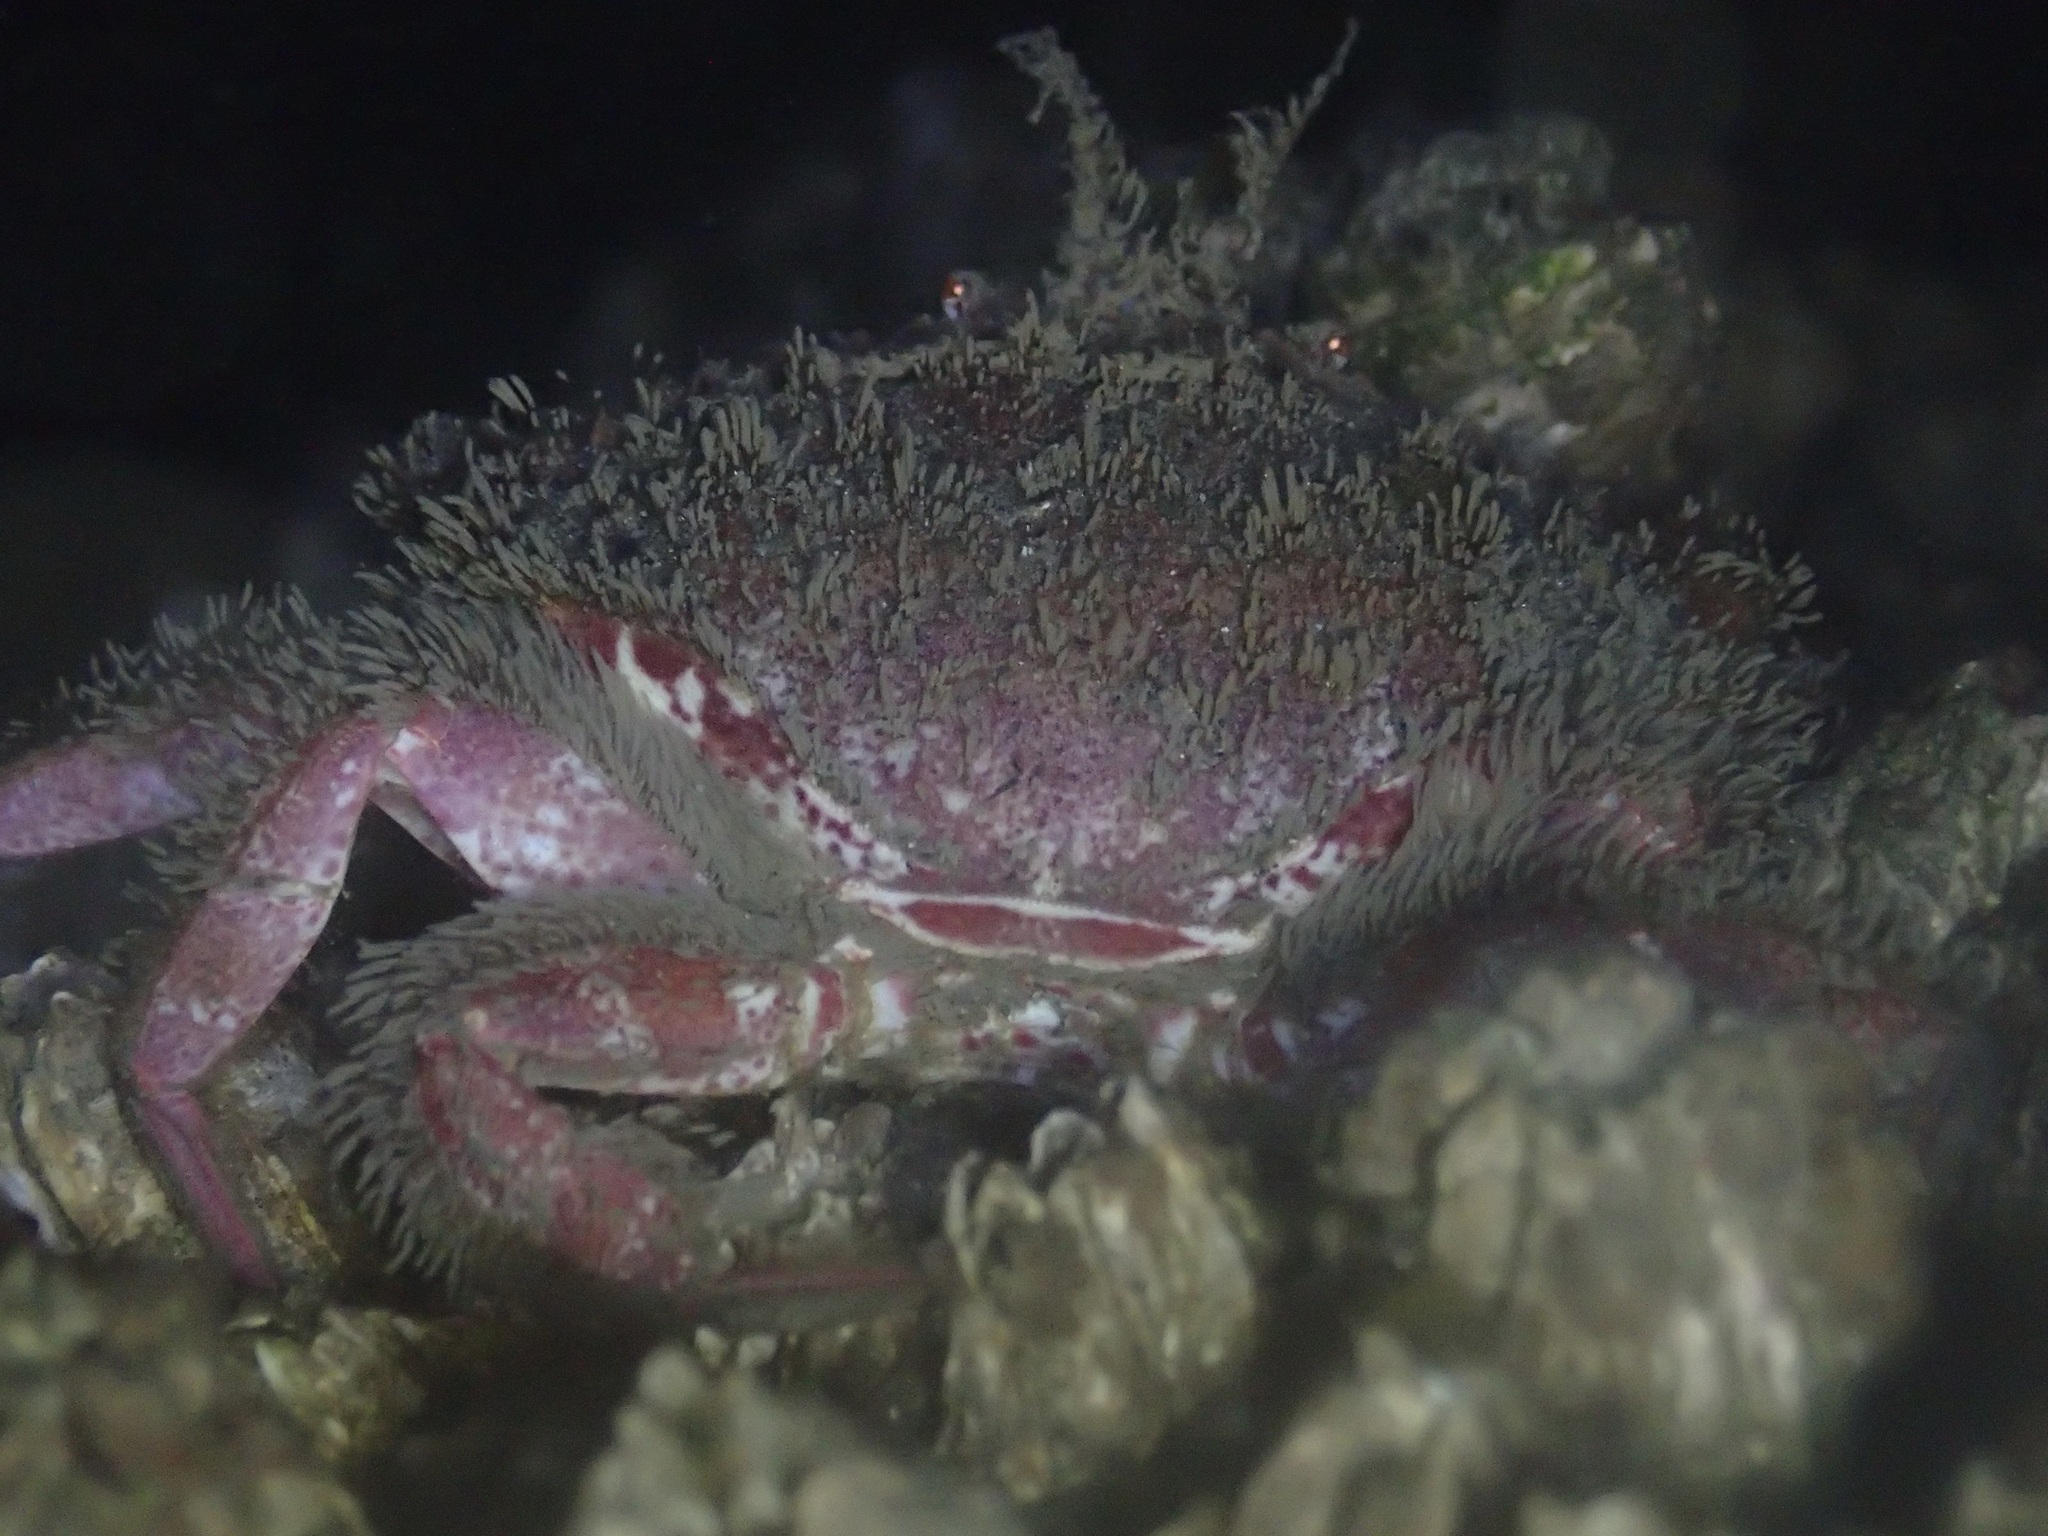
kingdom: Animalia
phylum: Arthropoda
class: Malacostraca
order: Decapoda
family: Cancridae
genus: Romaleon
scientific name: Romaleon antennarium
